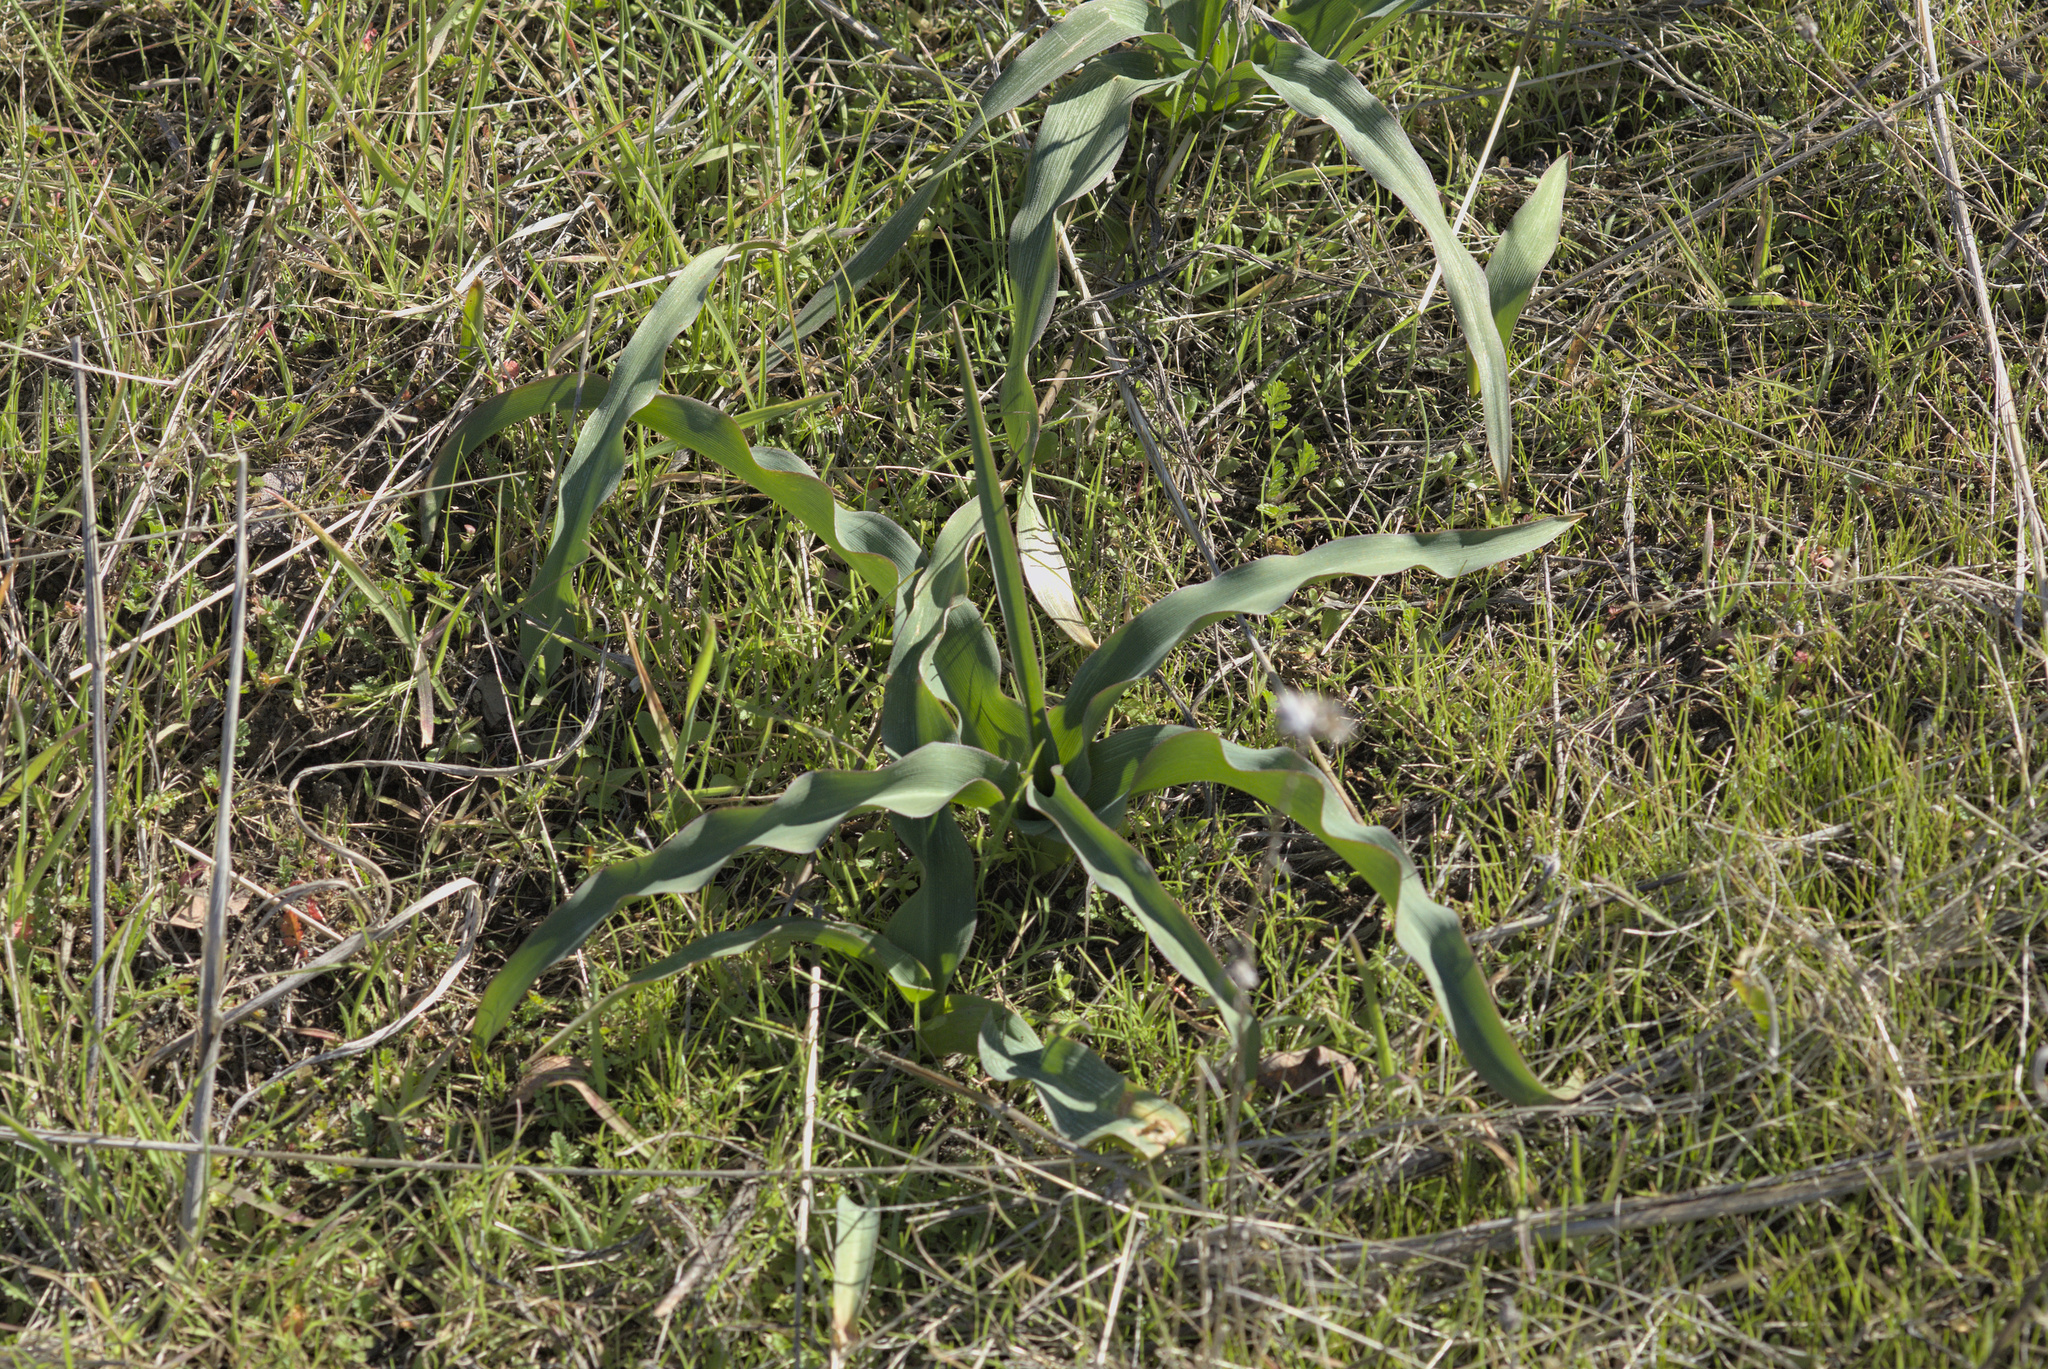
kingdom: Plantae
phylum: Tracheophyta
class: Liliopsida
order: Asparagales
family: Asparagaceae
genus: Chlorogalum
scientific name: Chlorogalum pomeridianum
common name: Amole
